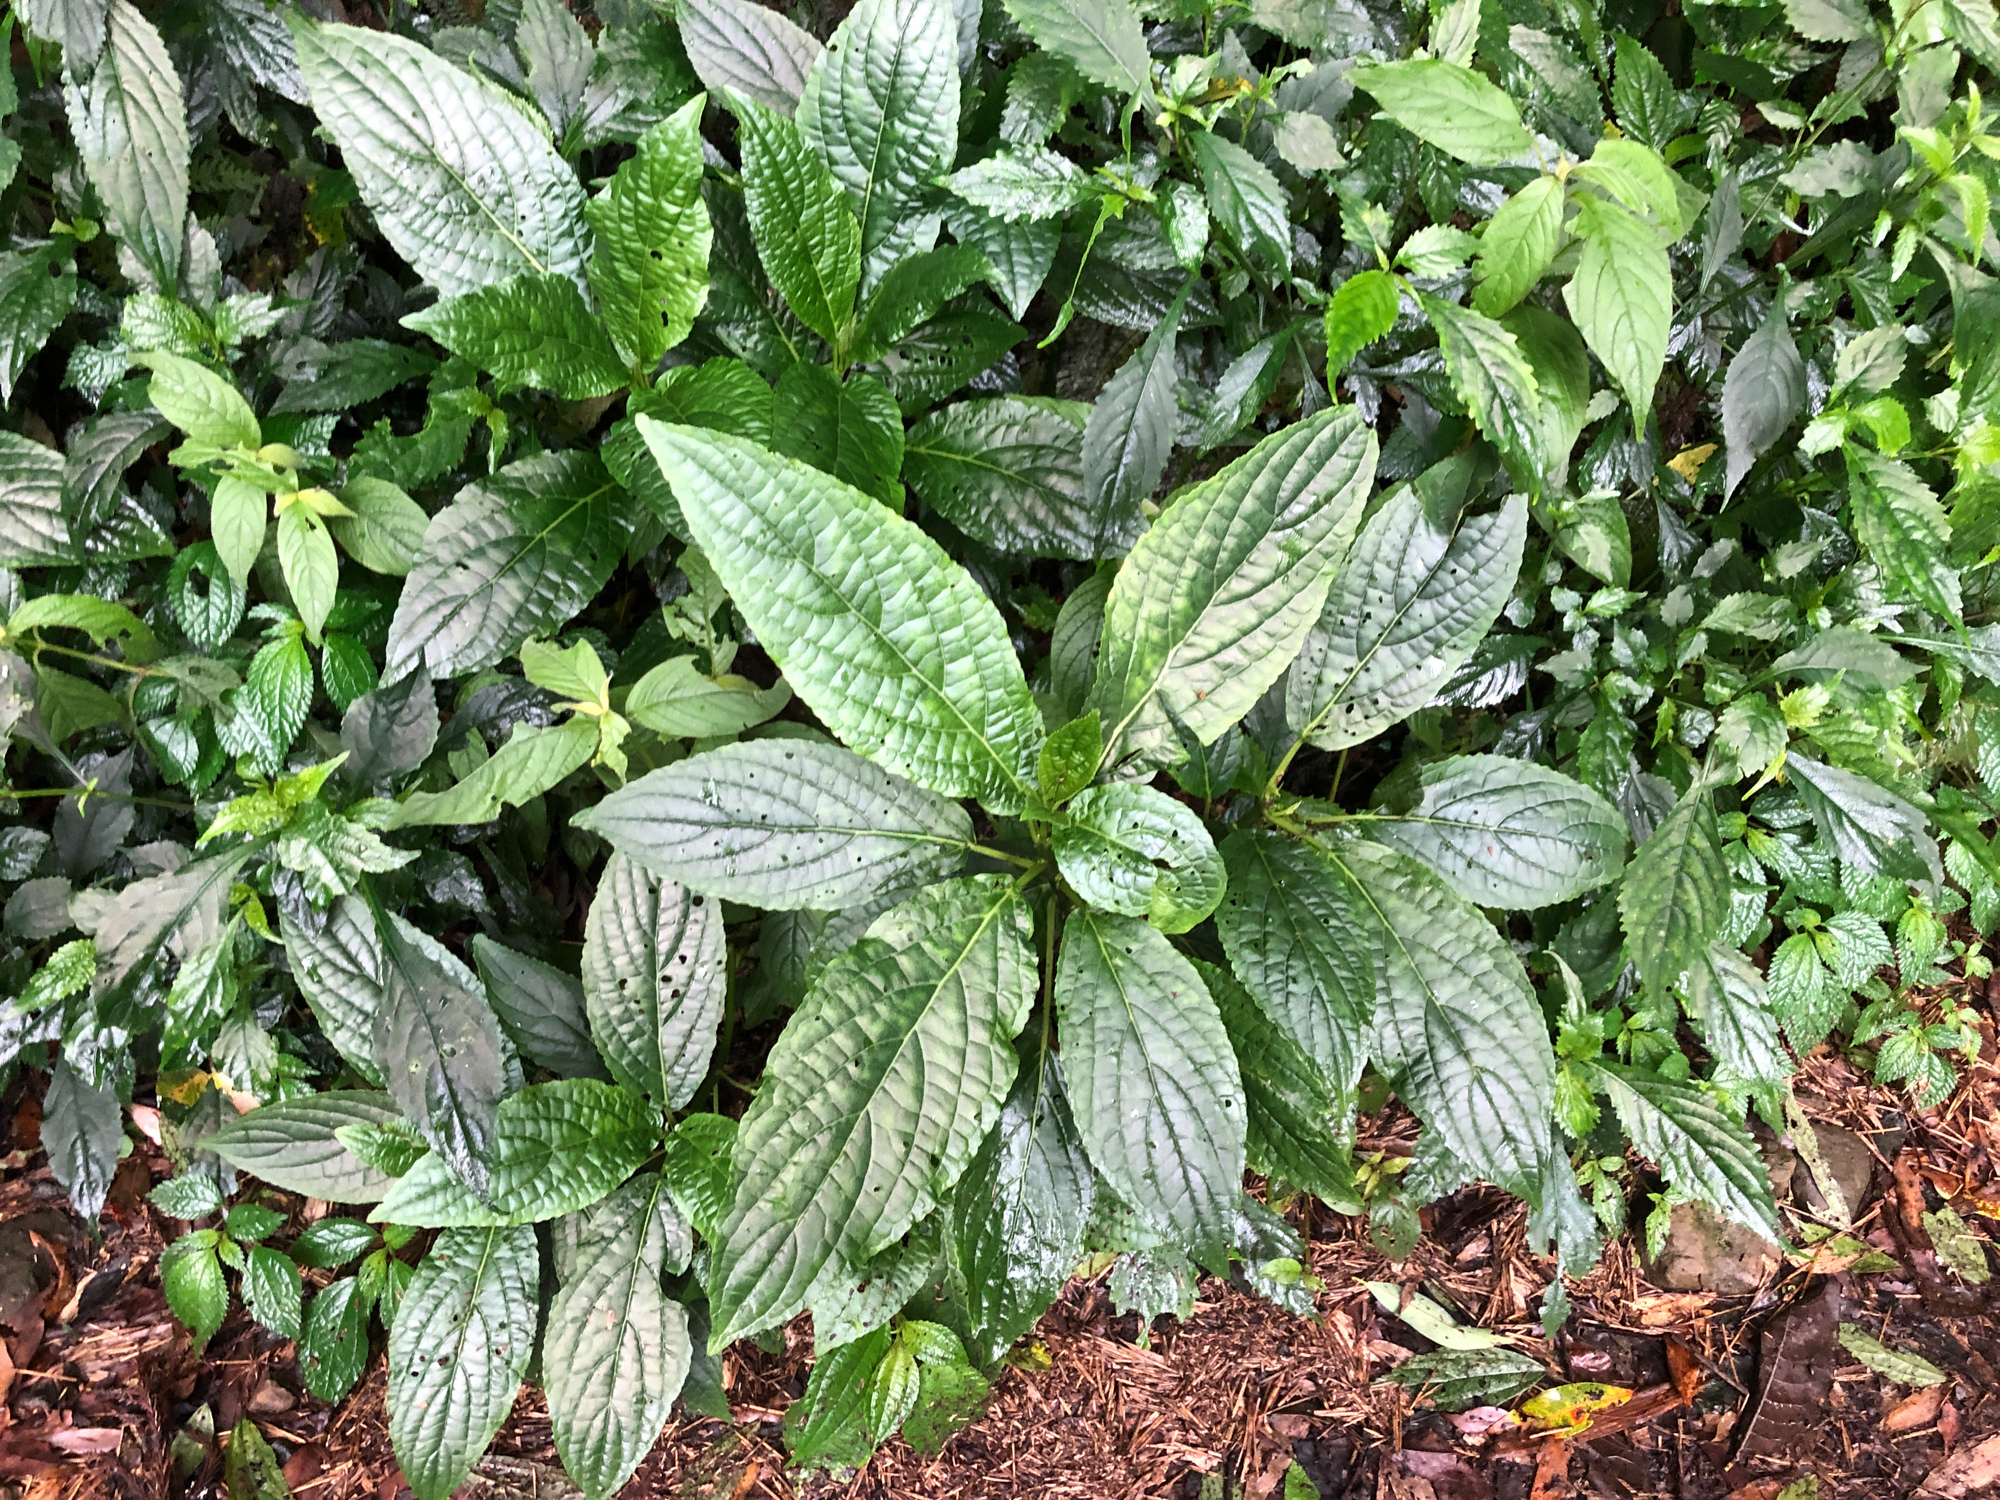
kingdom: Plantae
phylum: Tracheophyta
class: Magnoliopsida
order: Lamiales
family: Lamiaceae
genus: Paraphlomis
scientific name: Paraphlomis javanica
